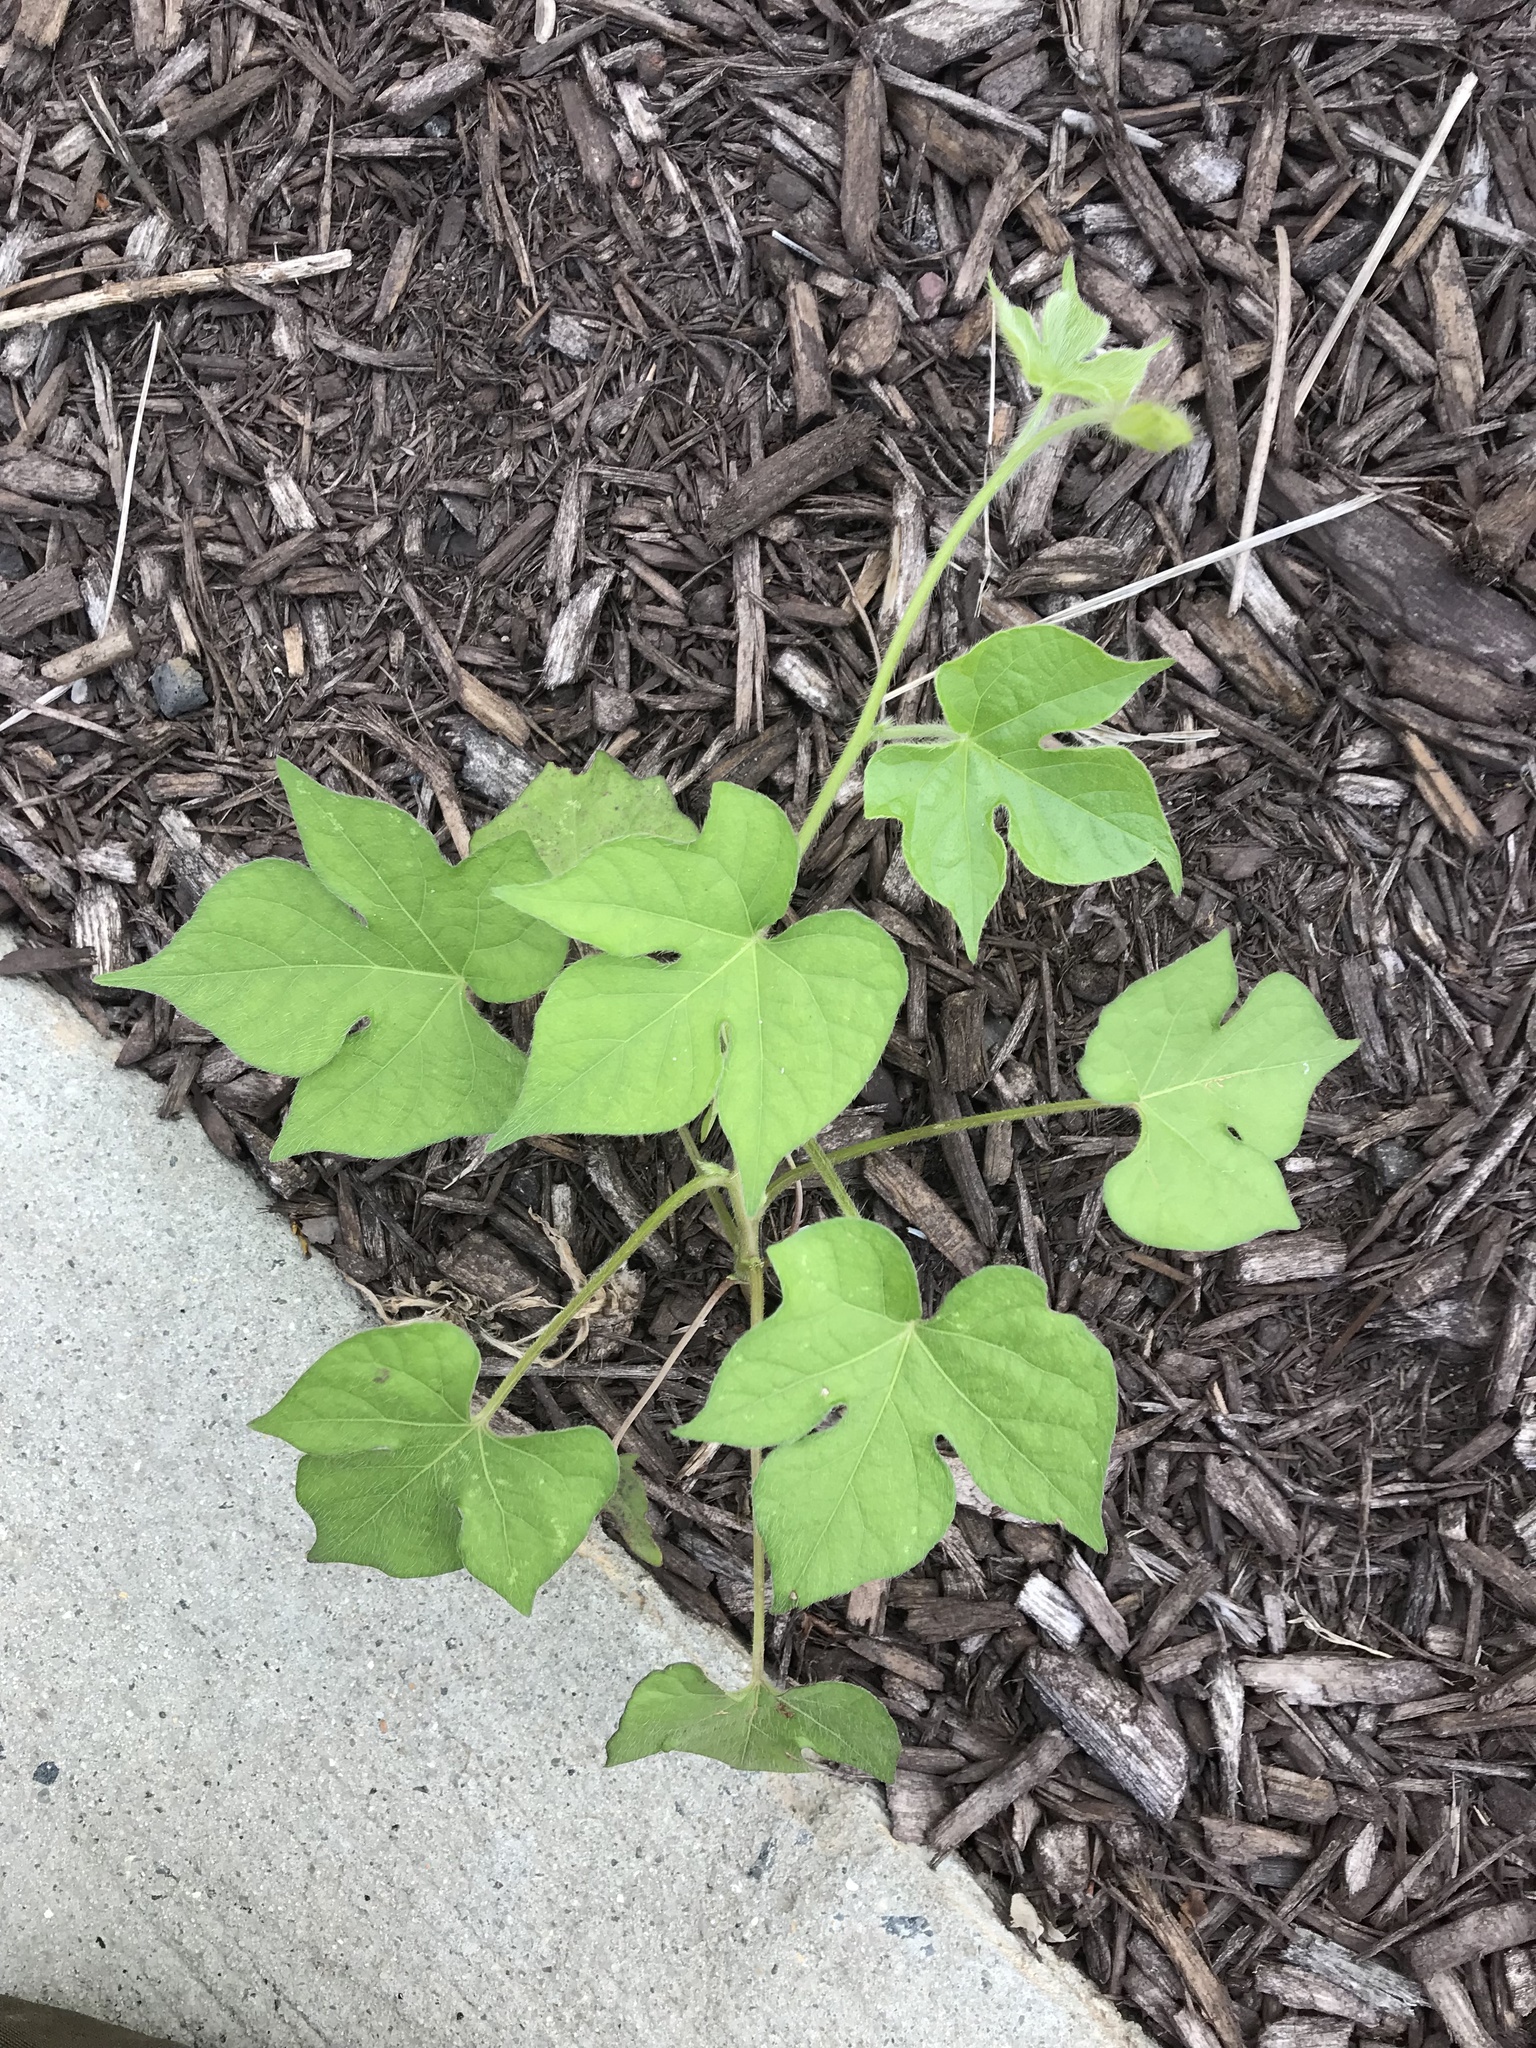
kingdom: Plantae
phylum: Tracheophyta
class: Magnoliopsida
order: Solanales
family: Convolvulaceae
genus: Ipomoea
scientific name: Ipomoea hederacea
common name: Ivy-leaved morning-glory
